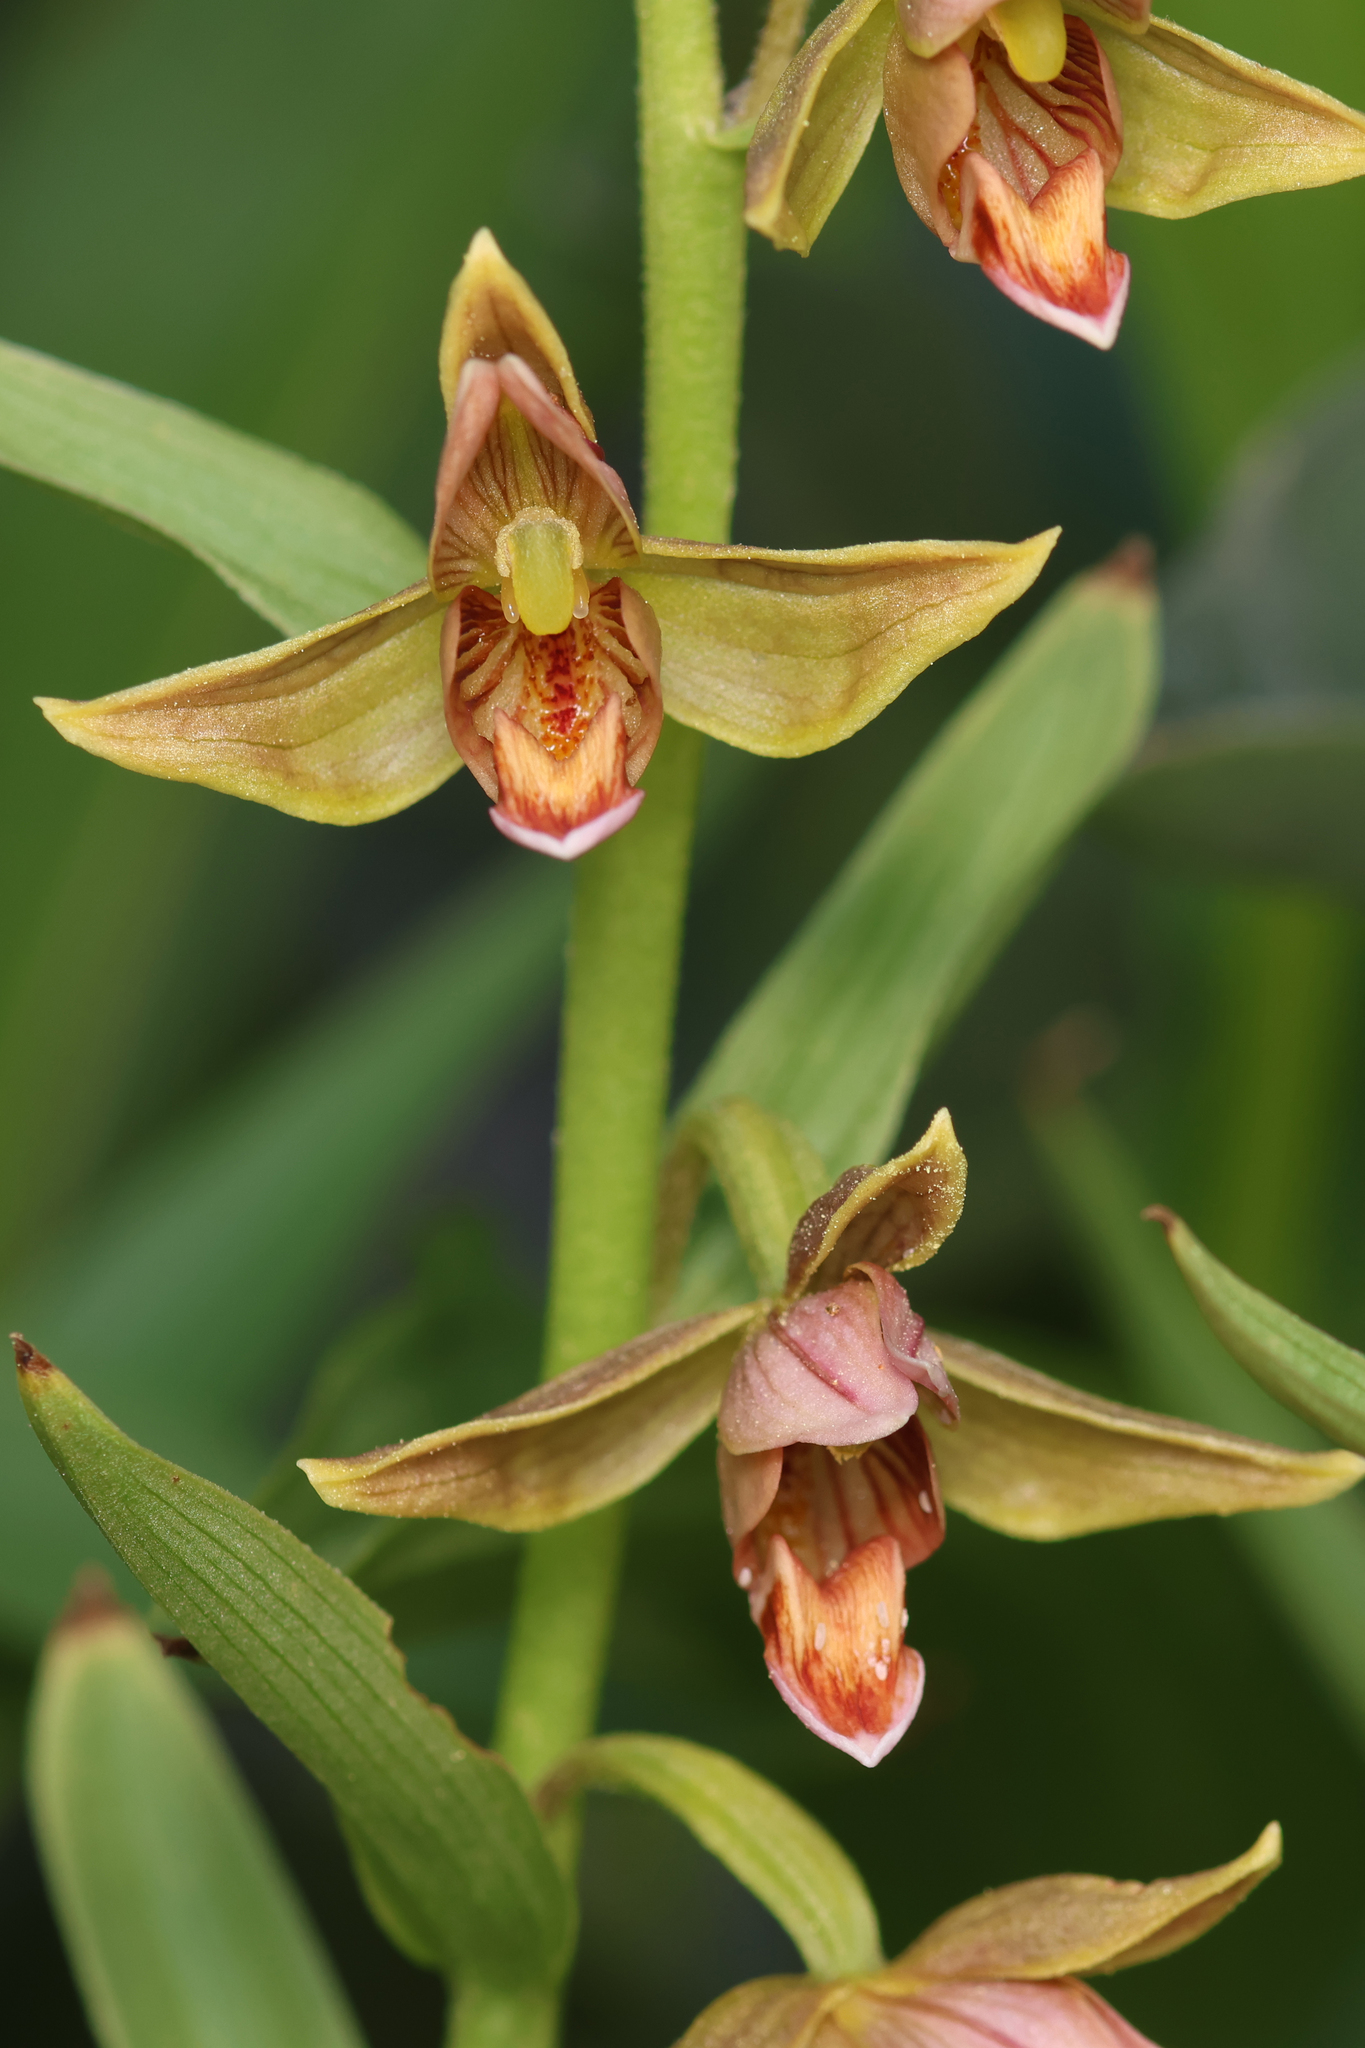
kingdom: Plantae
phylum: Tracheophyta
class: Liliopsida
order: Asparagales
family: Orchidaceae
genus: Epipactis
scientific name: Epipactis gigantea
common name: Chatterbox
